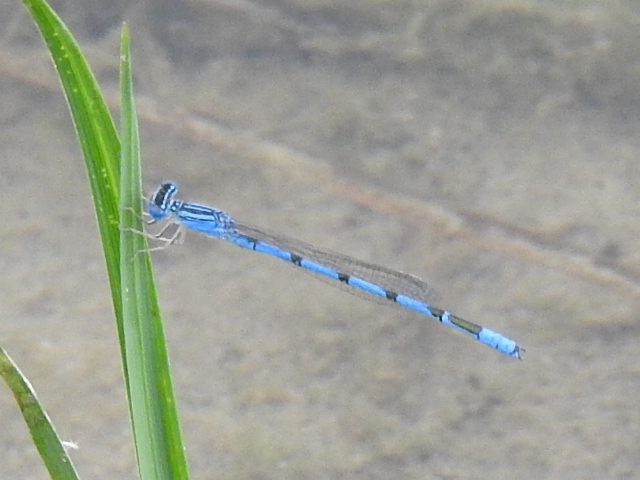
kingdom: Animalia
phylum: Arthropoda
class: Insecta
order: Odonata
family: Coenagrionidae
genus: Enallagma
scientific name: Enallagma basidens
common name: Double-striped bluet
